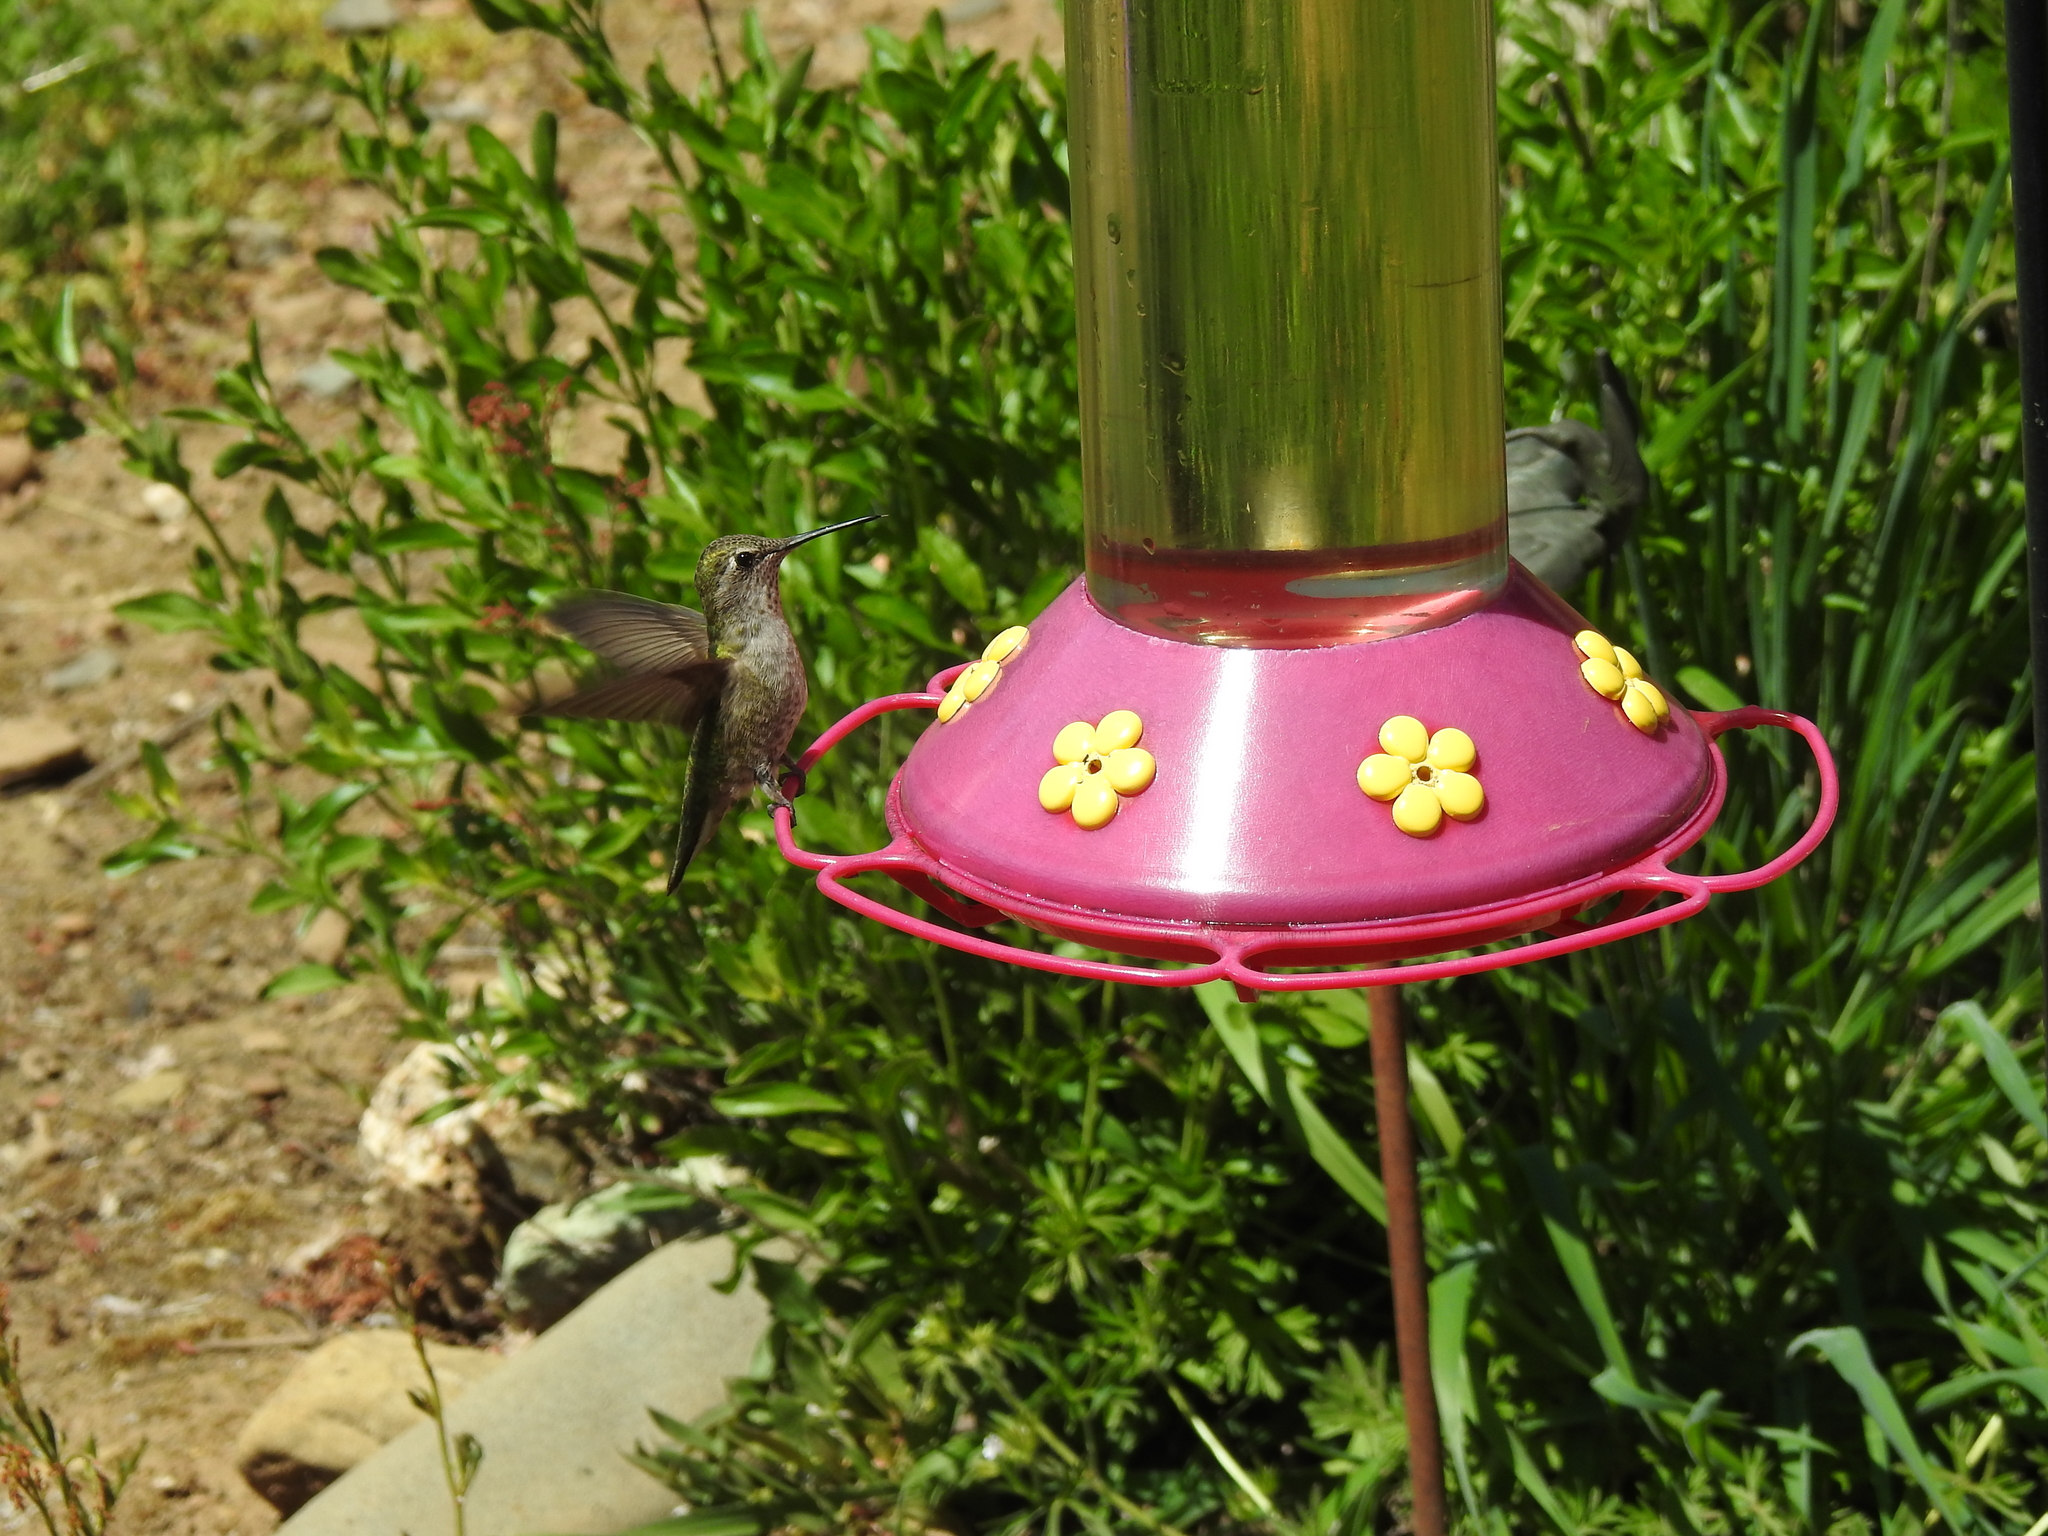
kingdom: Animalia
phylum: Chordata
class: Aves
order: Apodiformes
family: Trochilidae
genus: Calypte
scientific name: Calypte anna
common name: Anna's hummingbird
